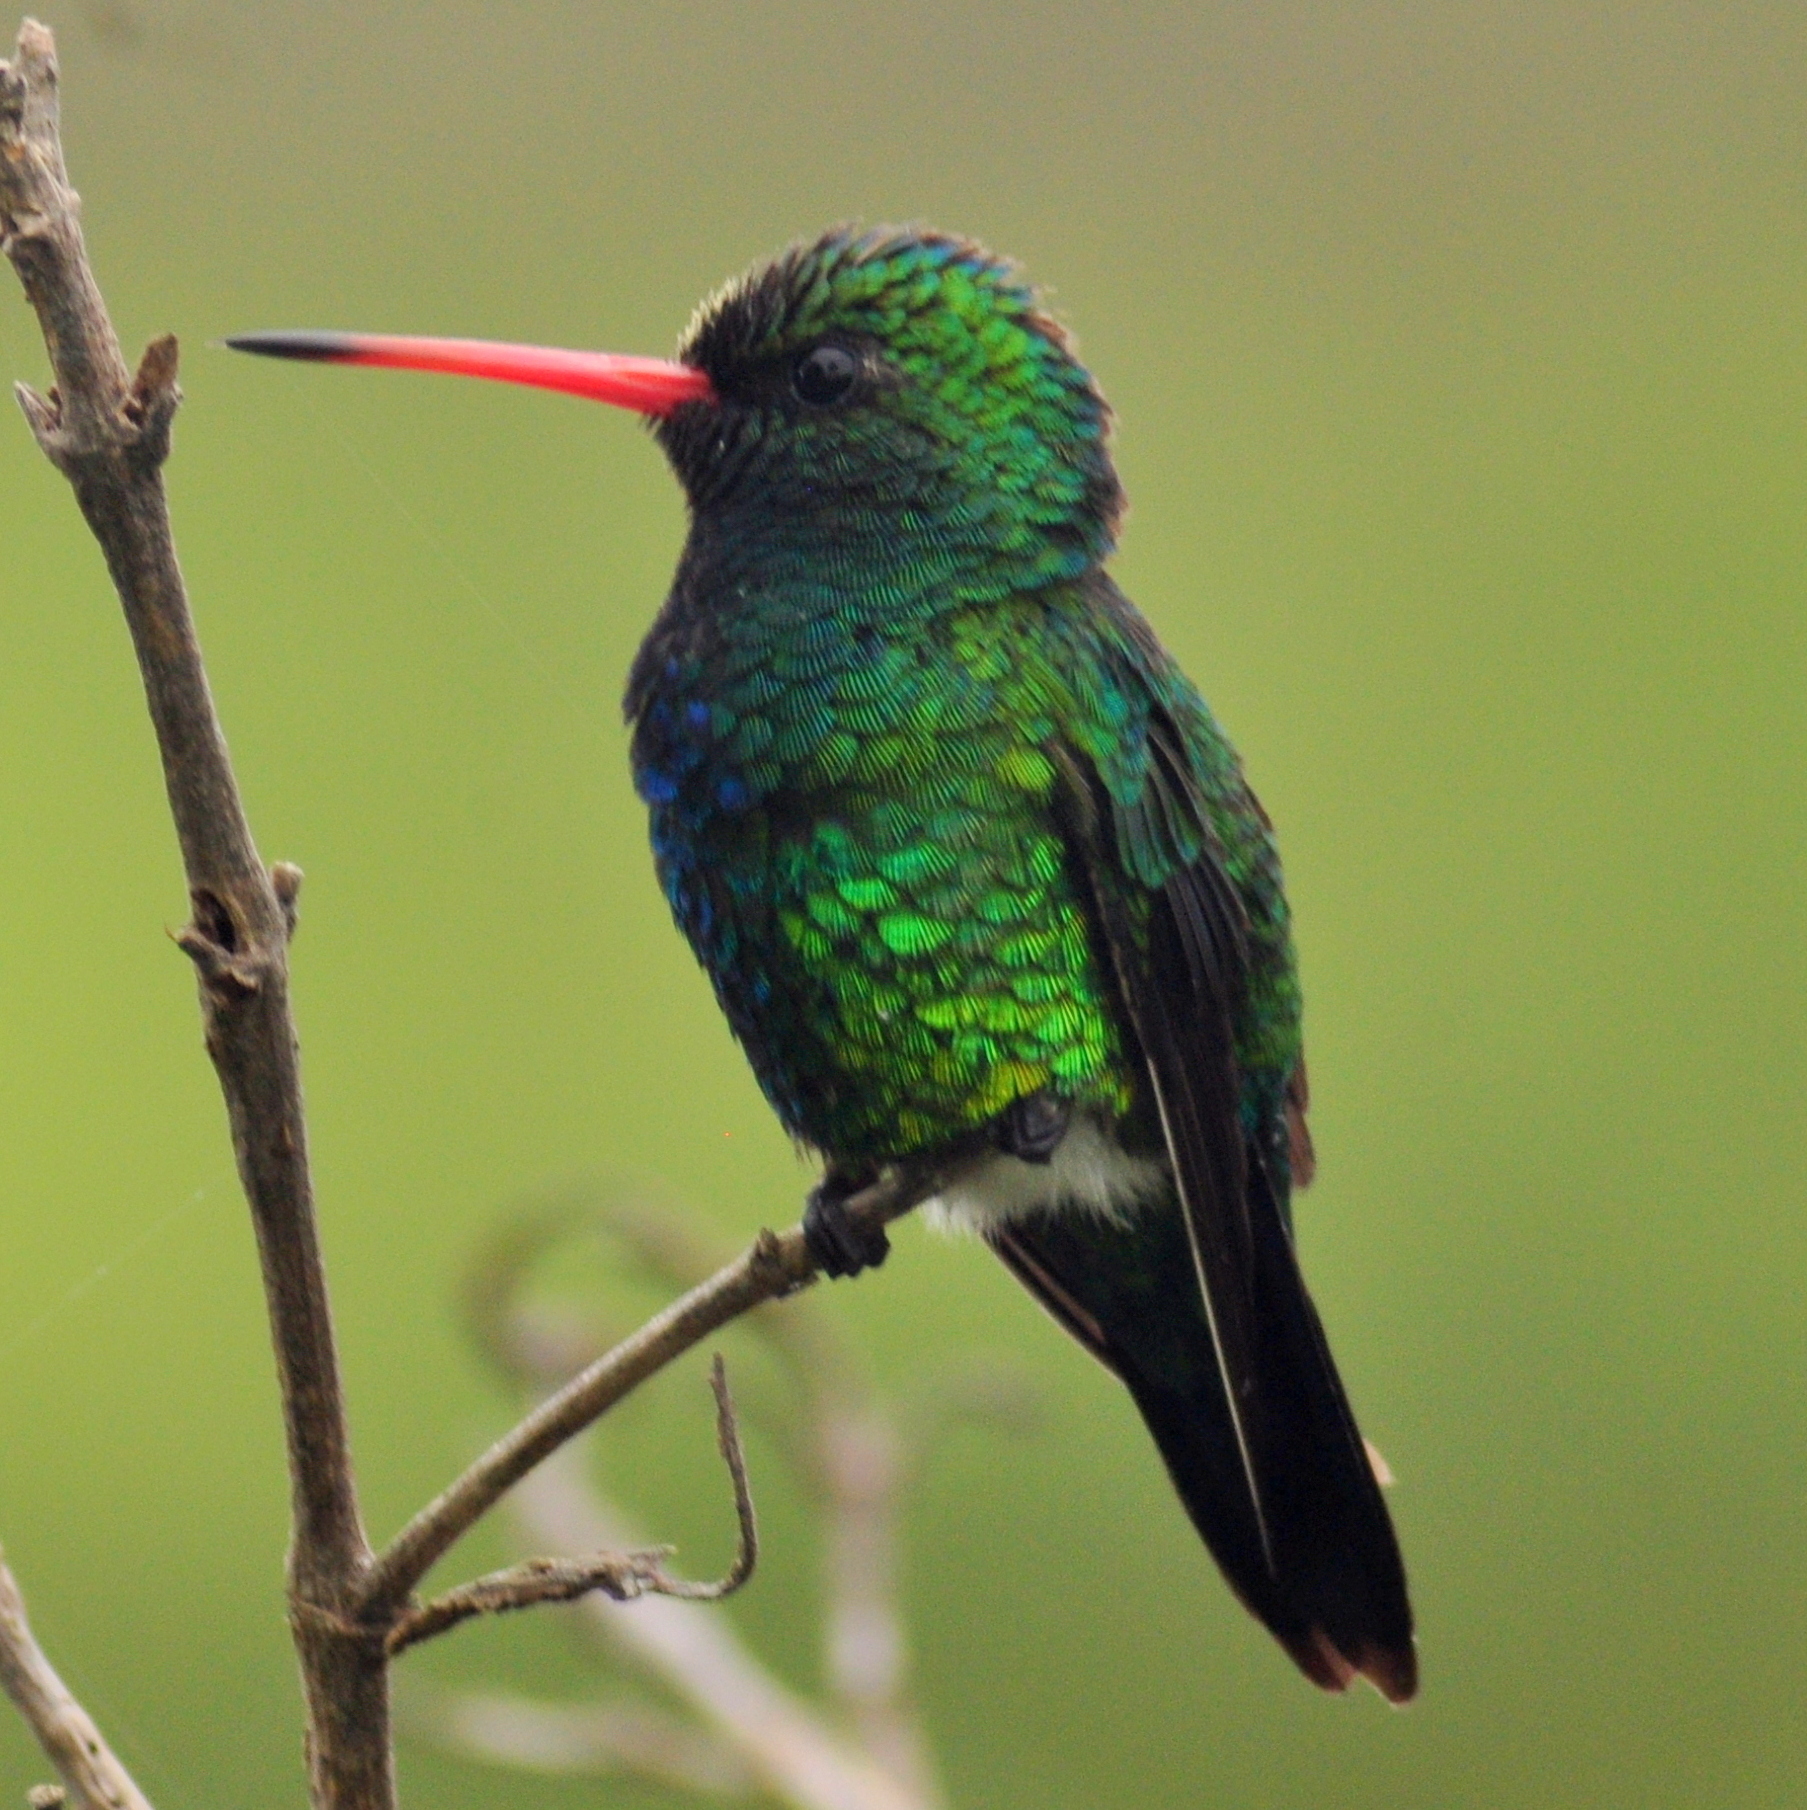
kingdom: Animalia
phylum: Chordata
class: Aves
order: Apodiformes
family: Trochilidae
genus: Chlorostilbon
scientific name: Chlorostilbon lucidus
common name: Glittering-bellied emerald
